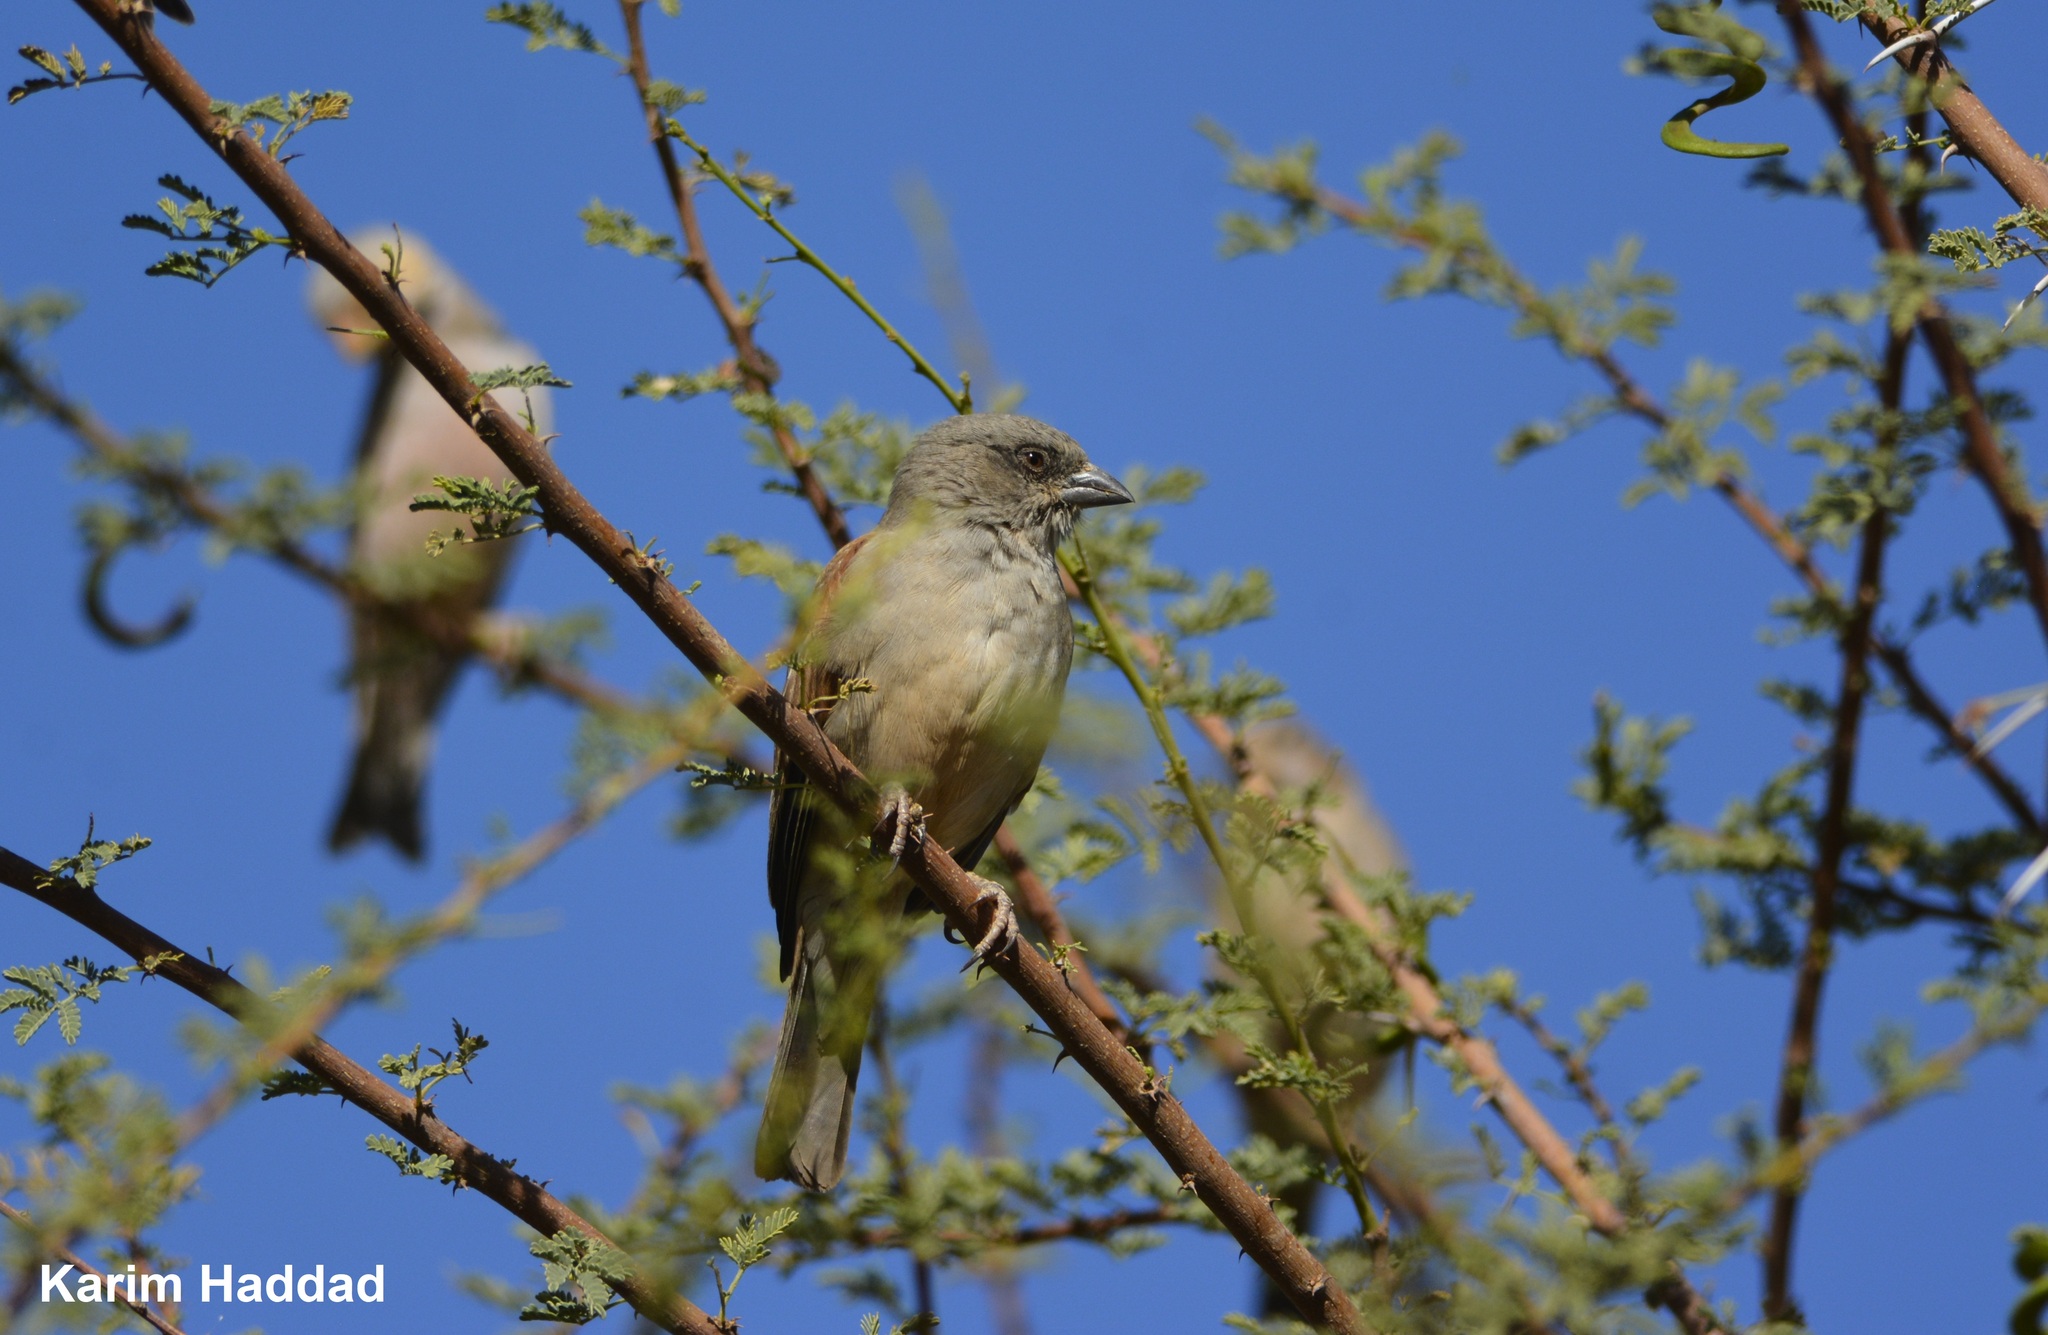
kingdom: Animalia
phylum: Chordata
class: Aves
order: Passeriformes
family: Passeridae
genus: Passer
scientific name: Passer griseus
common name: Northern grey-headed sparrow
